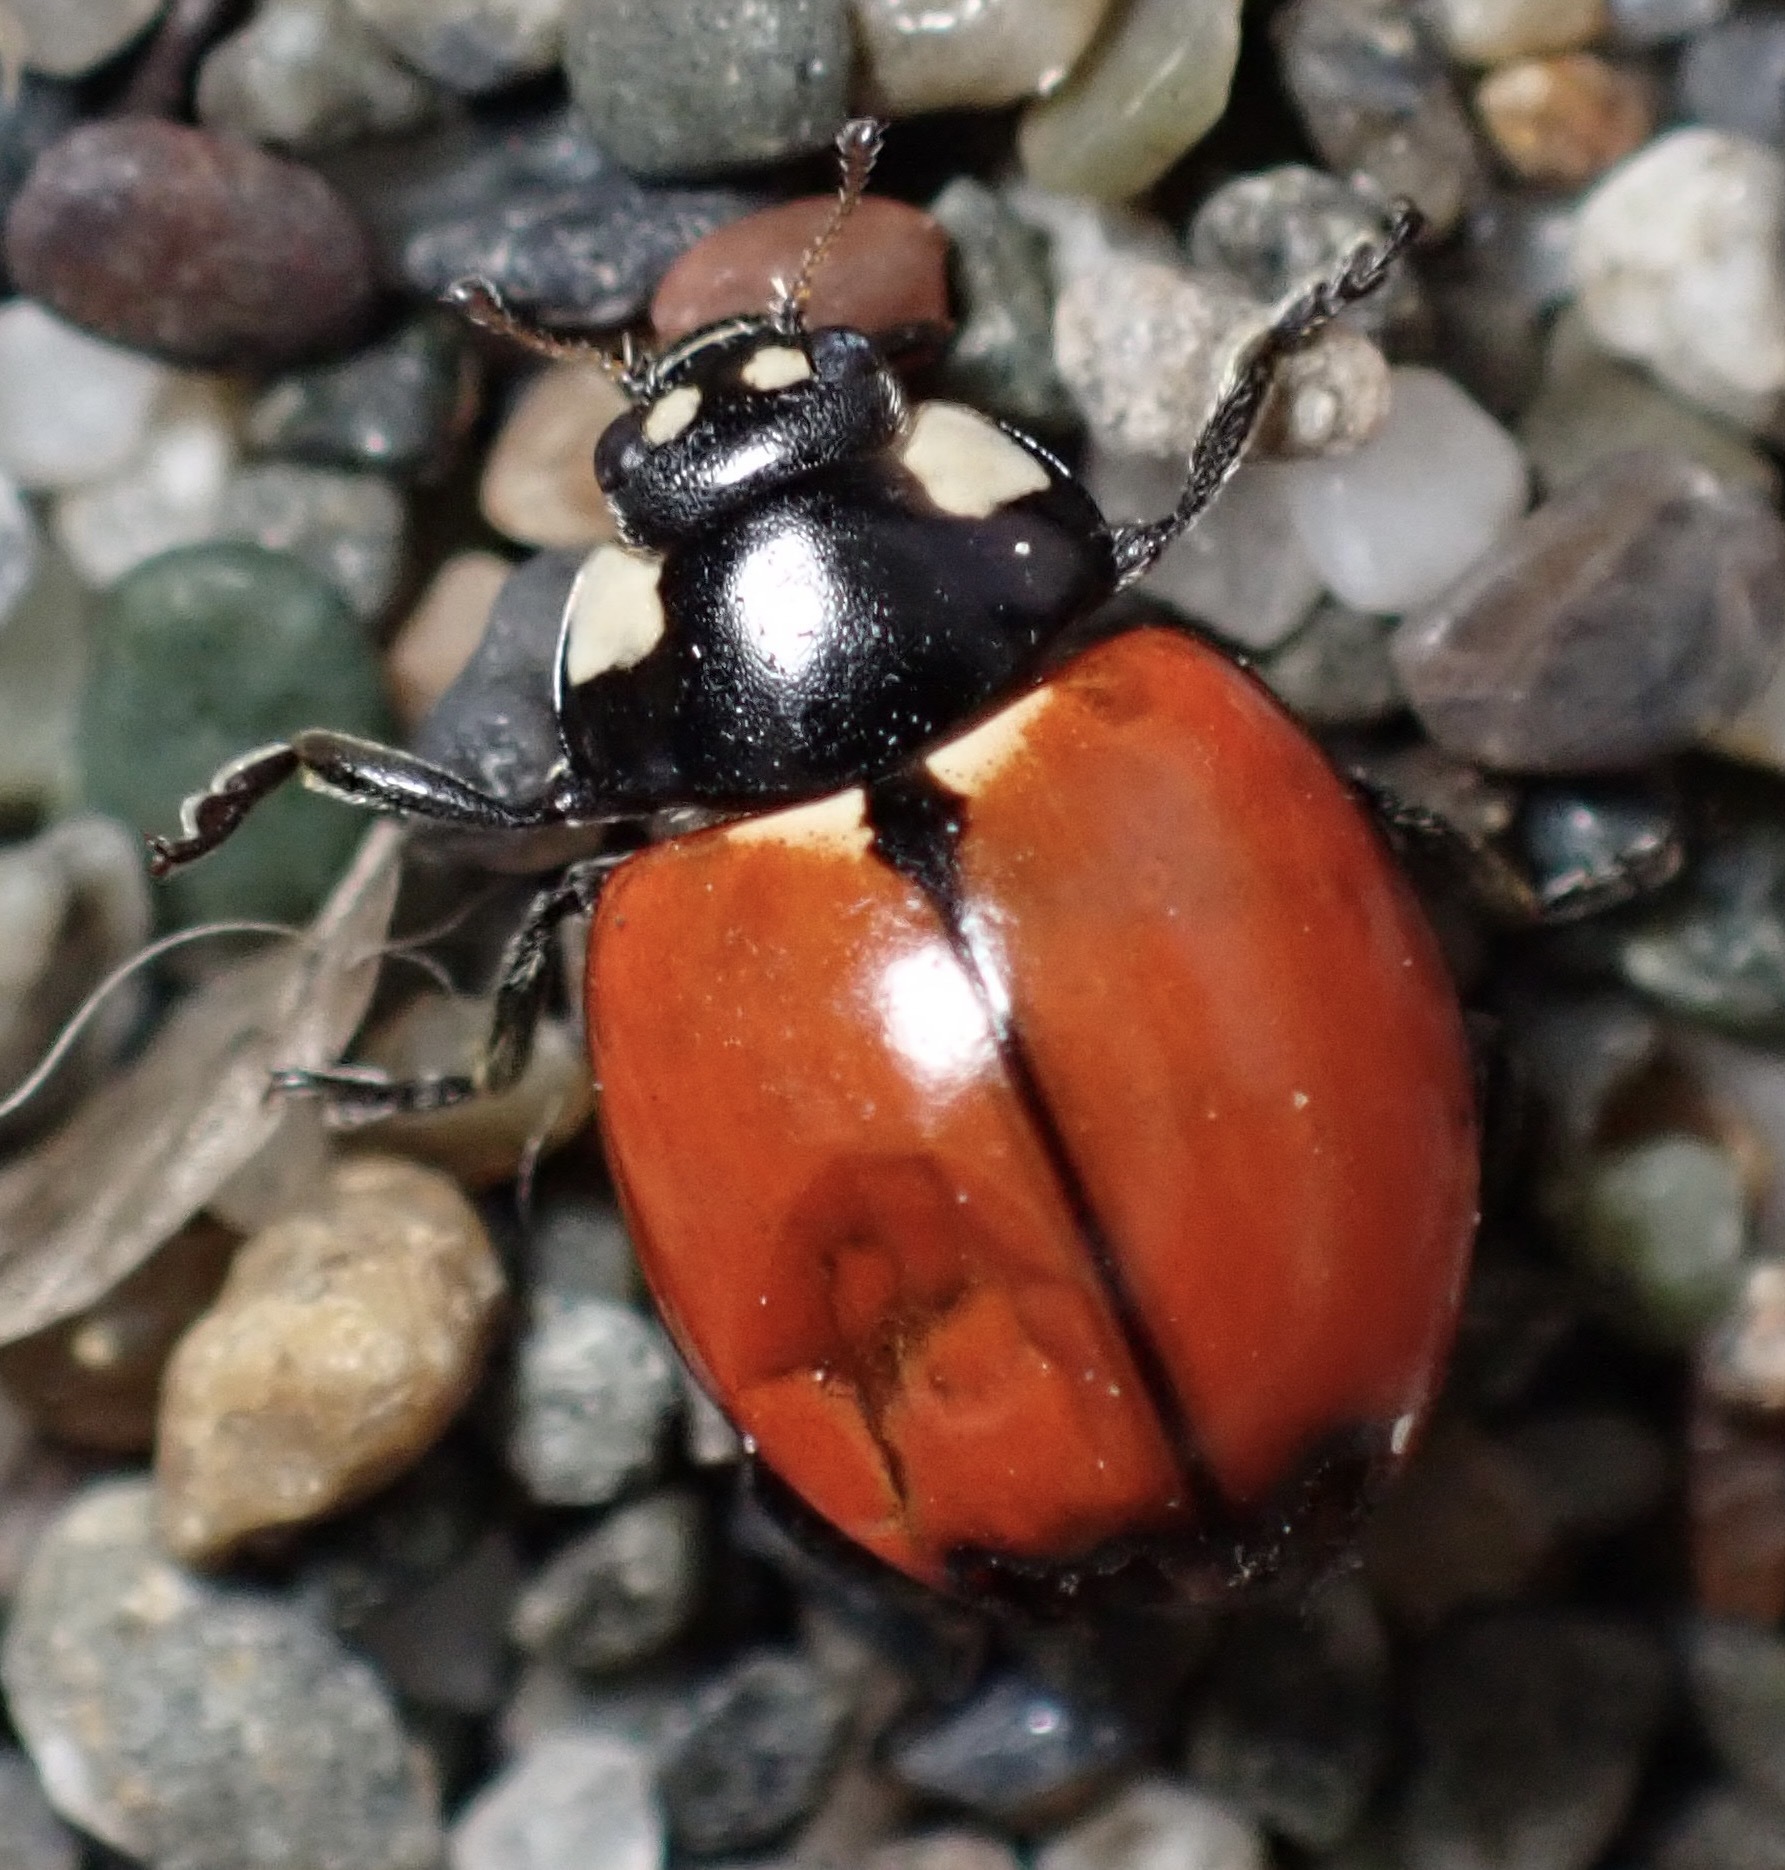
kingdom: Animalia
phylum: Arthropoda
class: Insecta
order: Coleoptera
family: Coccinellidae
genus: Coccinella
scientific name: Coccinella californica
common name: Lady beetle
